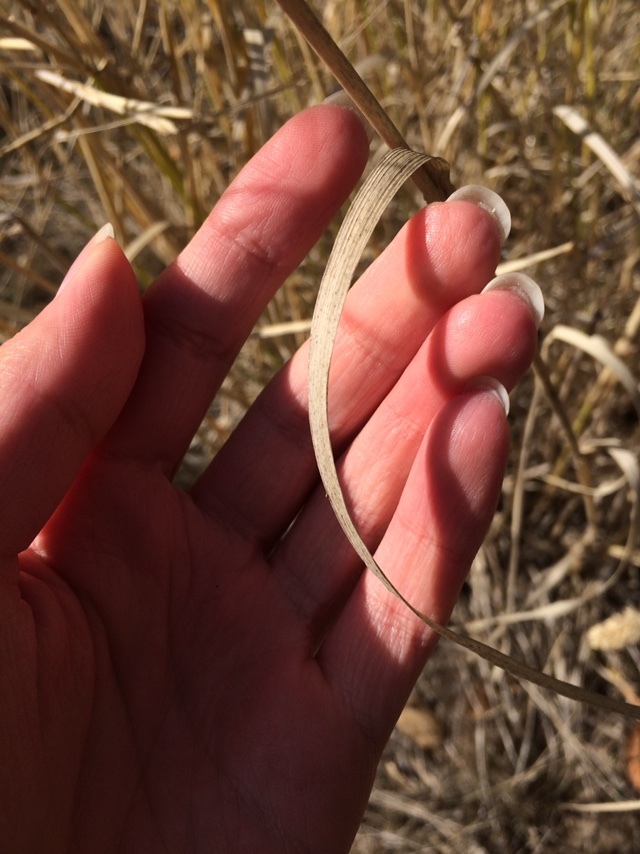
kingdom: Plantae
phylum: Tracheophyta
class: Liliopsida
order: Poales
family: Poaceae
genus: Phalaris
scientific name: Phalaris aquatica
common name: Bulbous canary-grass
